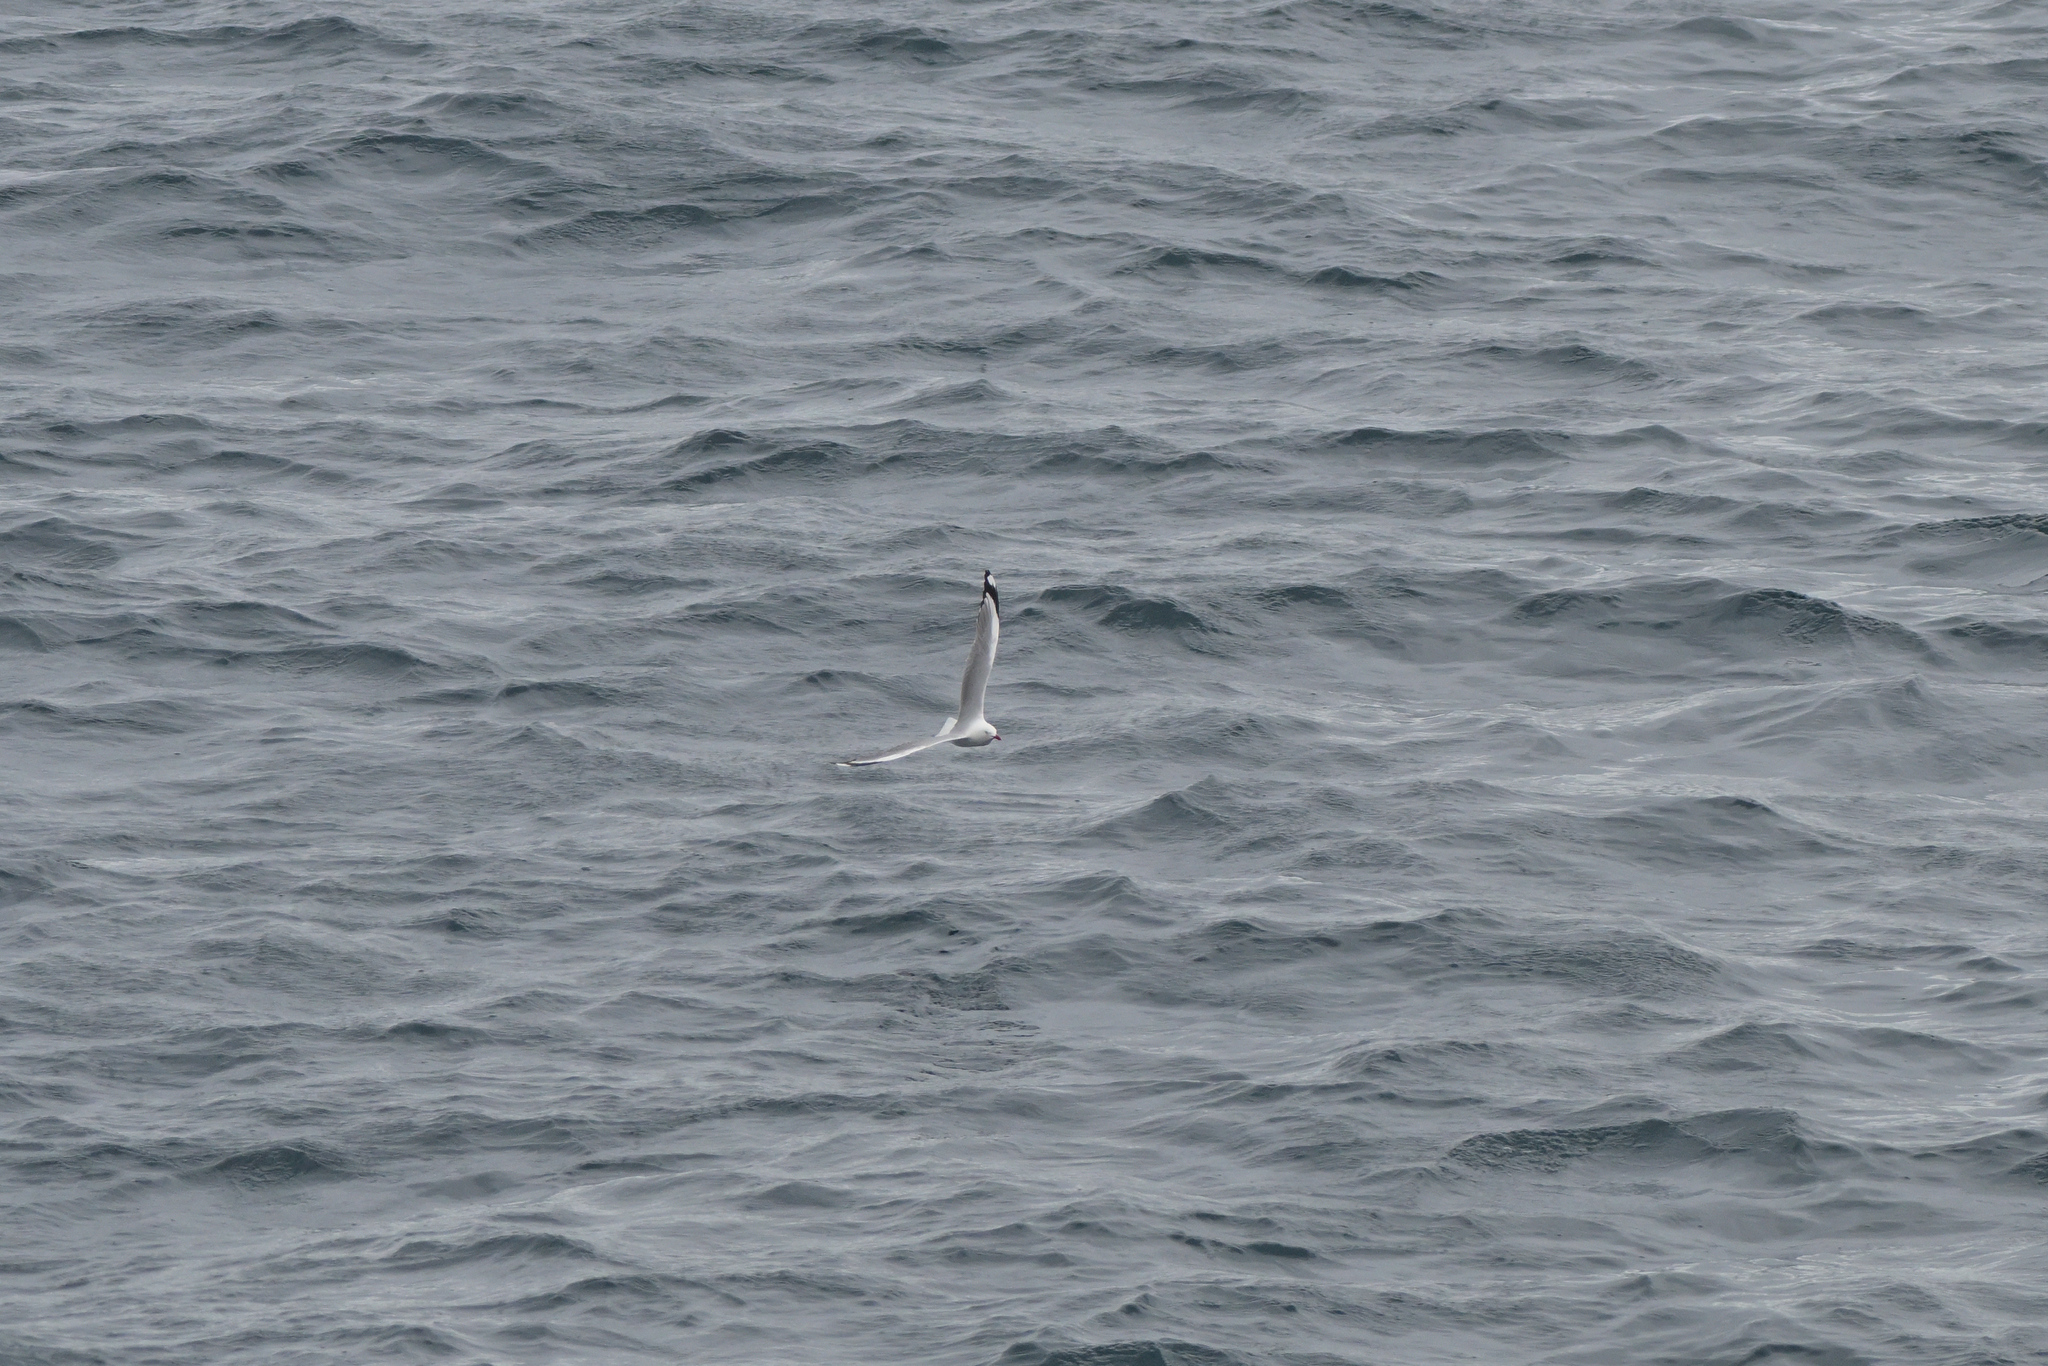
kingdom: Animalia
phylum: Chordata
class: Aves
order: Charadriiformes
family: Laridae
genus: Chroicocephalus
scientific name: Chroicocephalus novaehollandiae
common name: Silver gull
